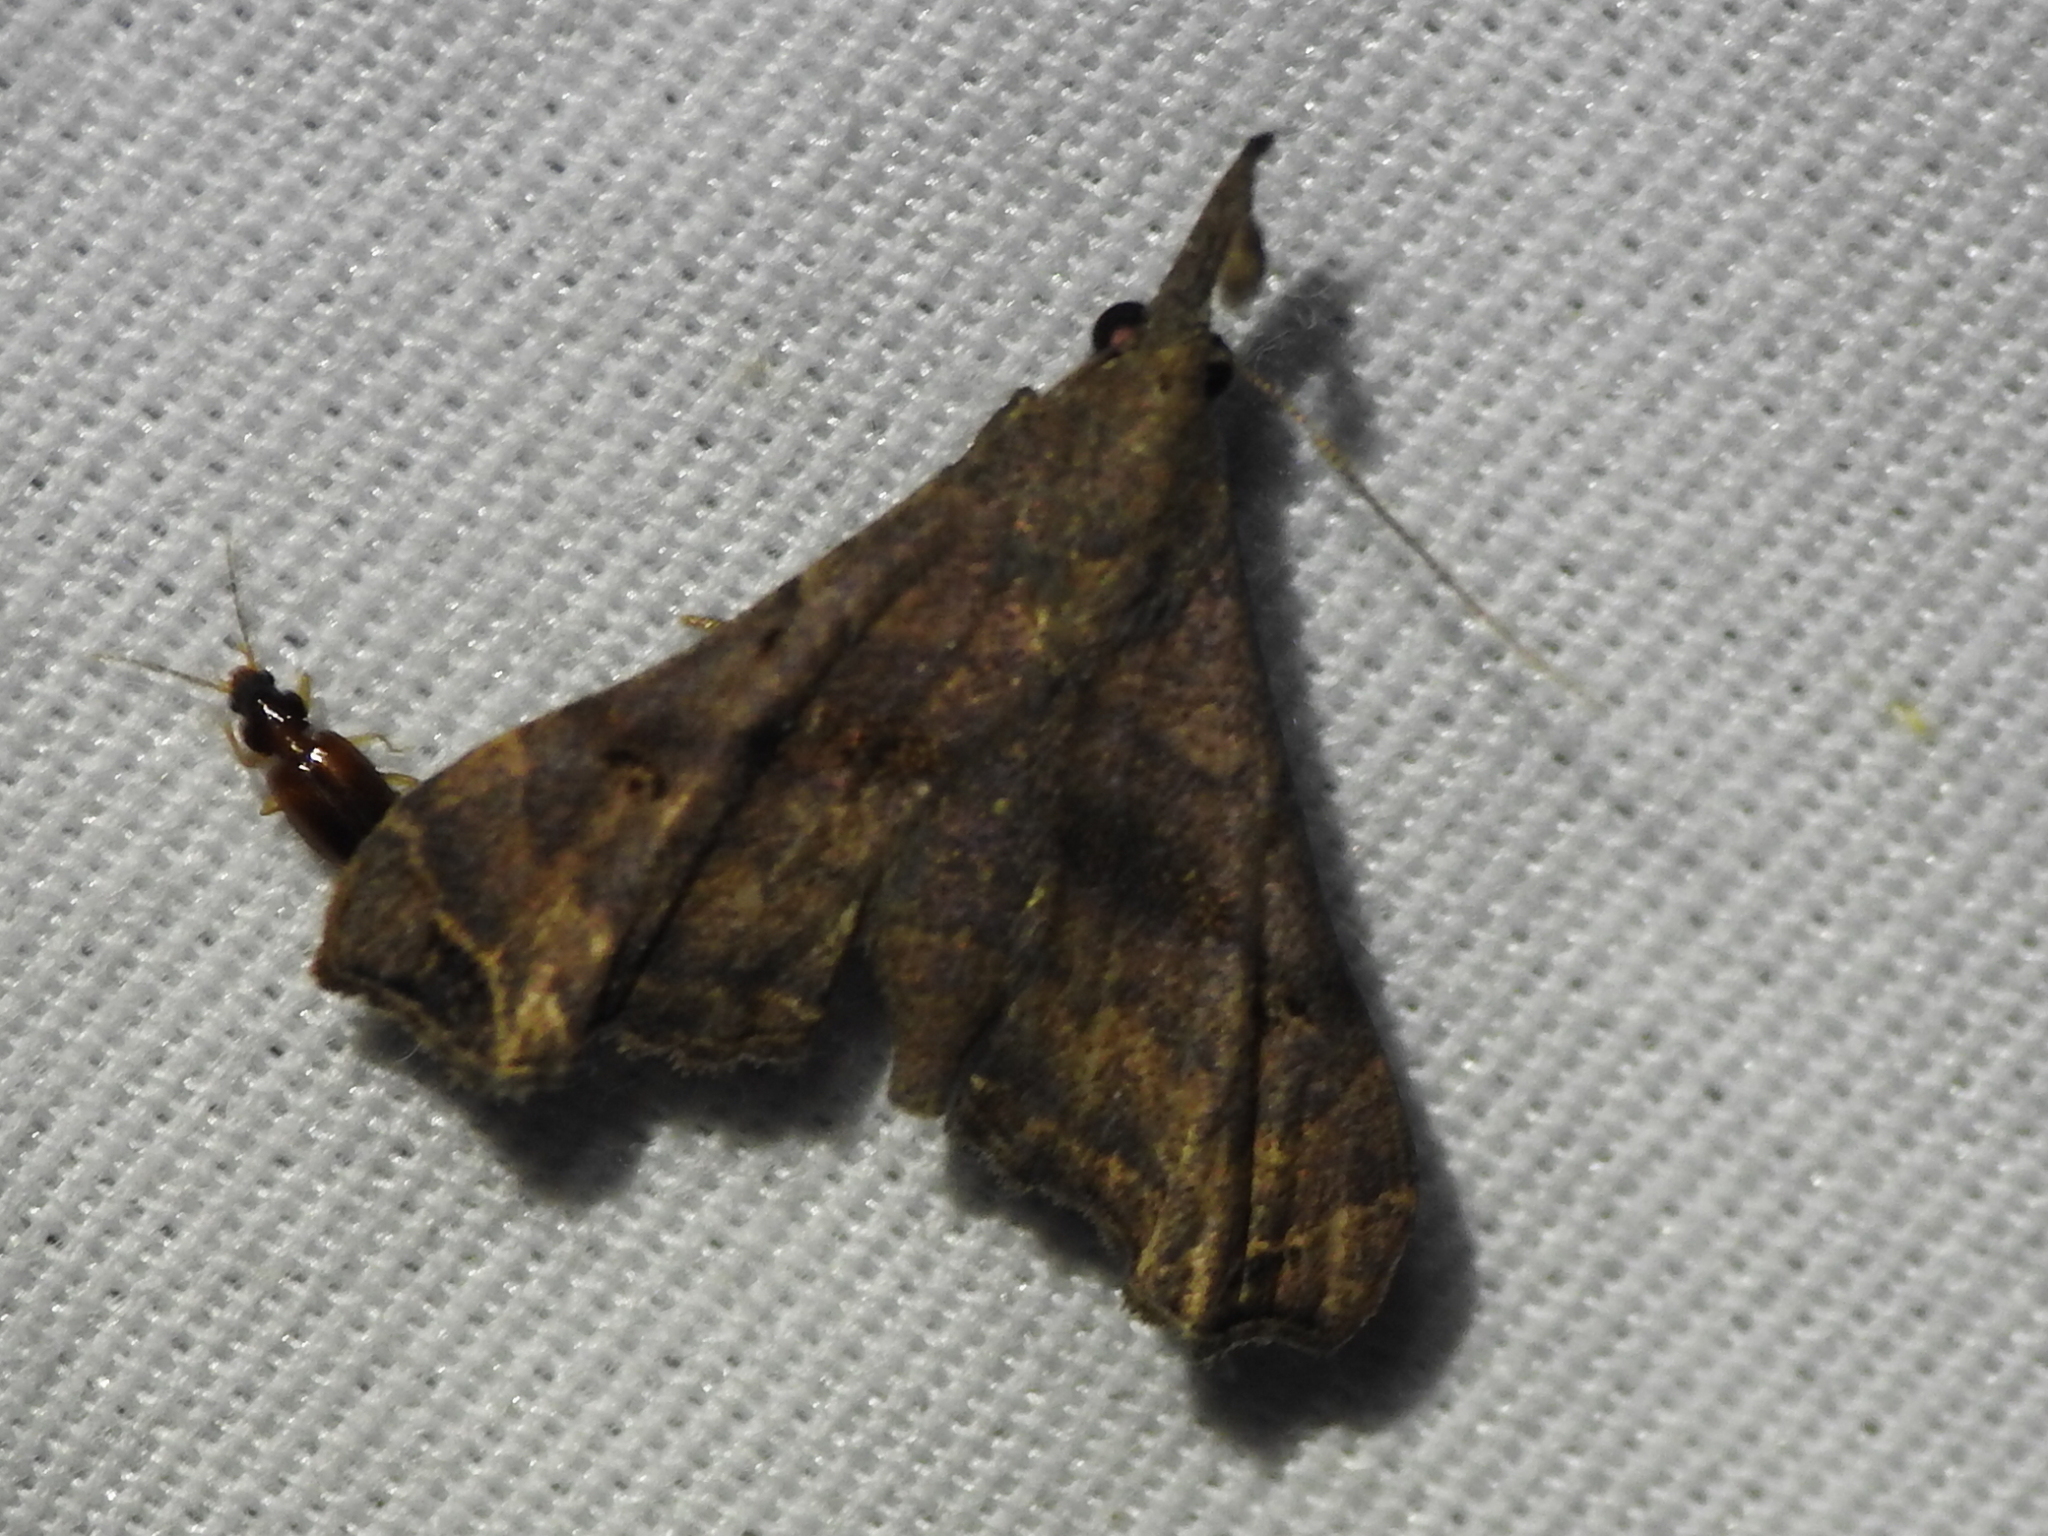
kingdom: Animalia
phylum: Arthropoda
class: Insecta
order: Lepidoptera
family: Erebidae
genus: Palthis
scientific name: Palthis asopialis
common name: Faint-spotted palthis moth
